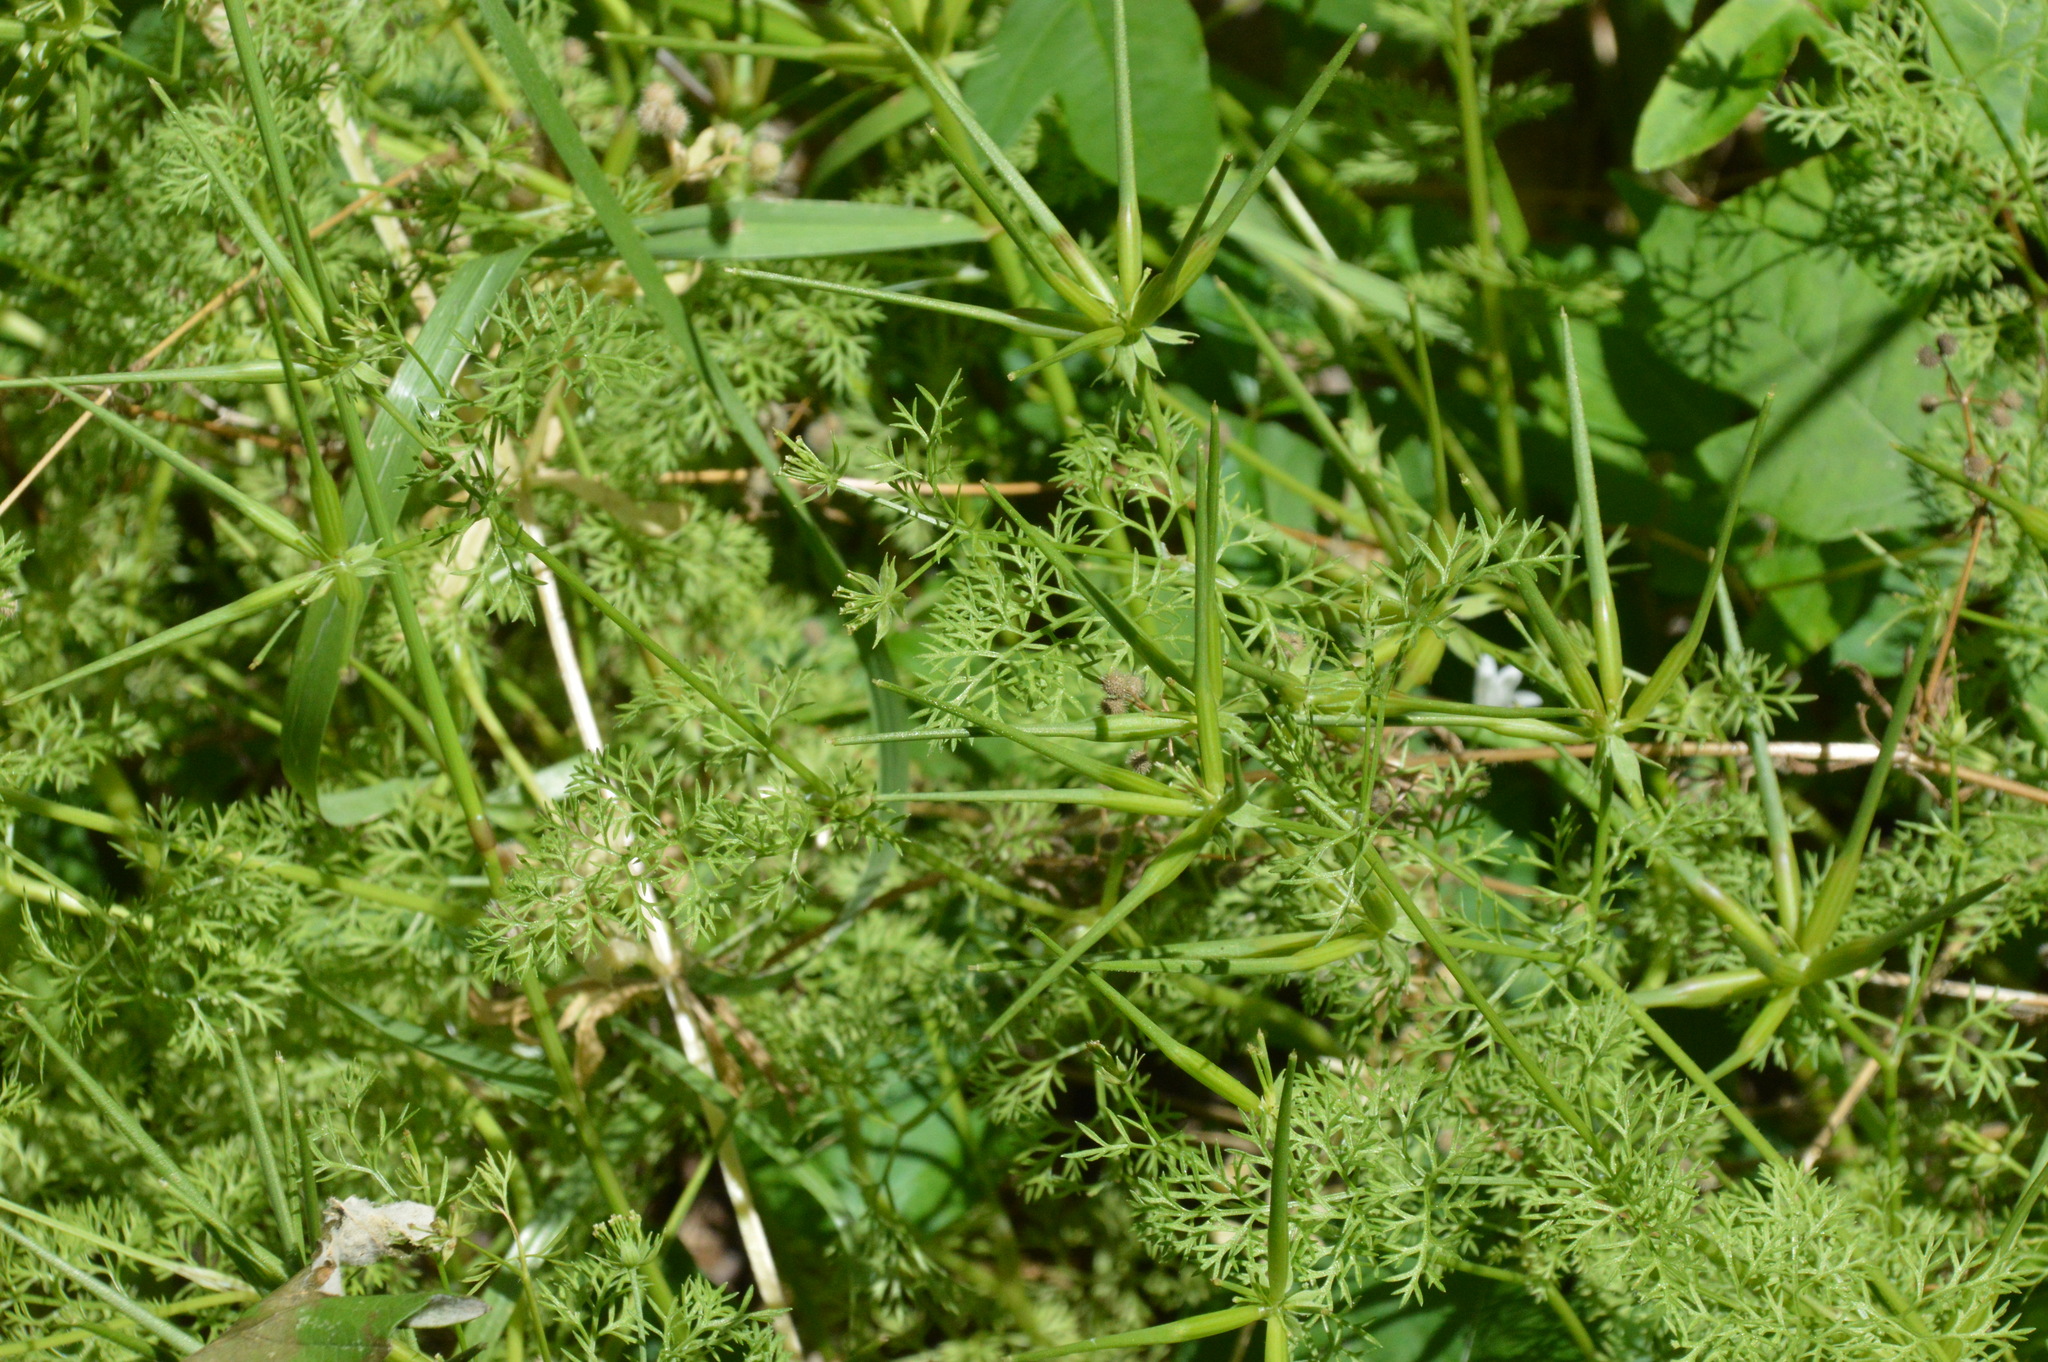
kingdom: Plantae
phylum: Tracheophyta
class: Magnoliopsida
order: Apiales
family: Apiaceae
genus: Scandix
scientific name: Scandix pecten-veneris
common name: Shepherd's-needle
